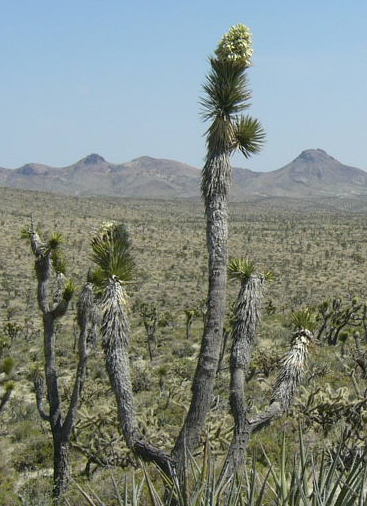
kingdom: Plantae
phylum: Tracheophyta
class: Liliopsida
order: Asparagales
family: Asparagaceae
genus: Yucca
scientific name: Yucca brevifolia
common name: Joshua tree
